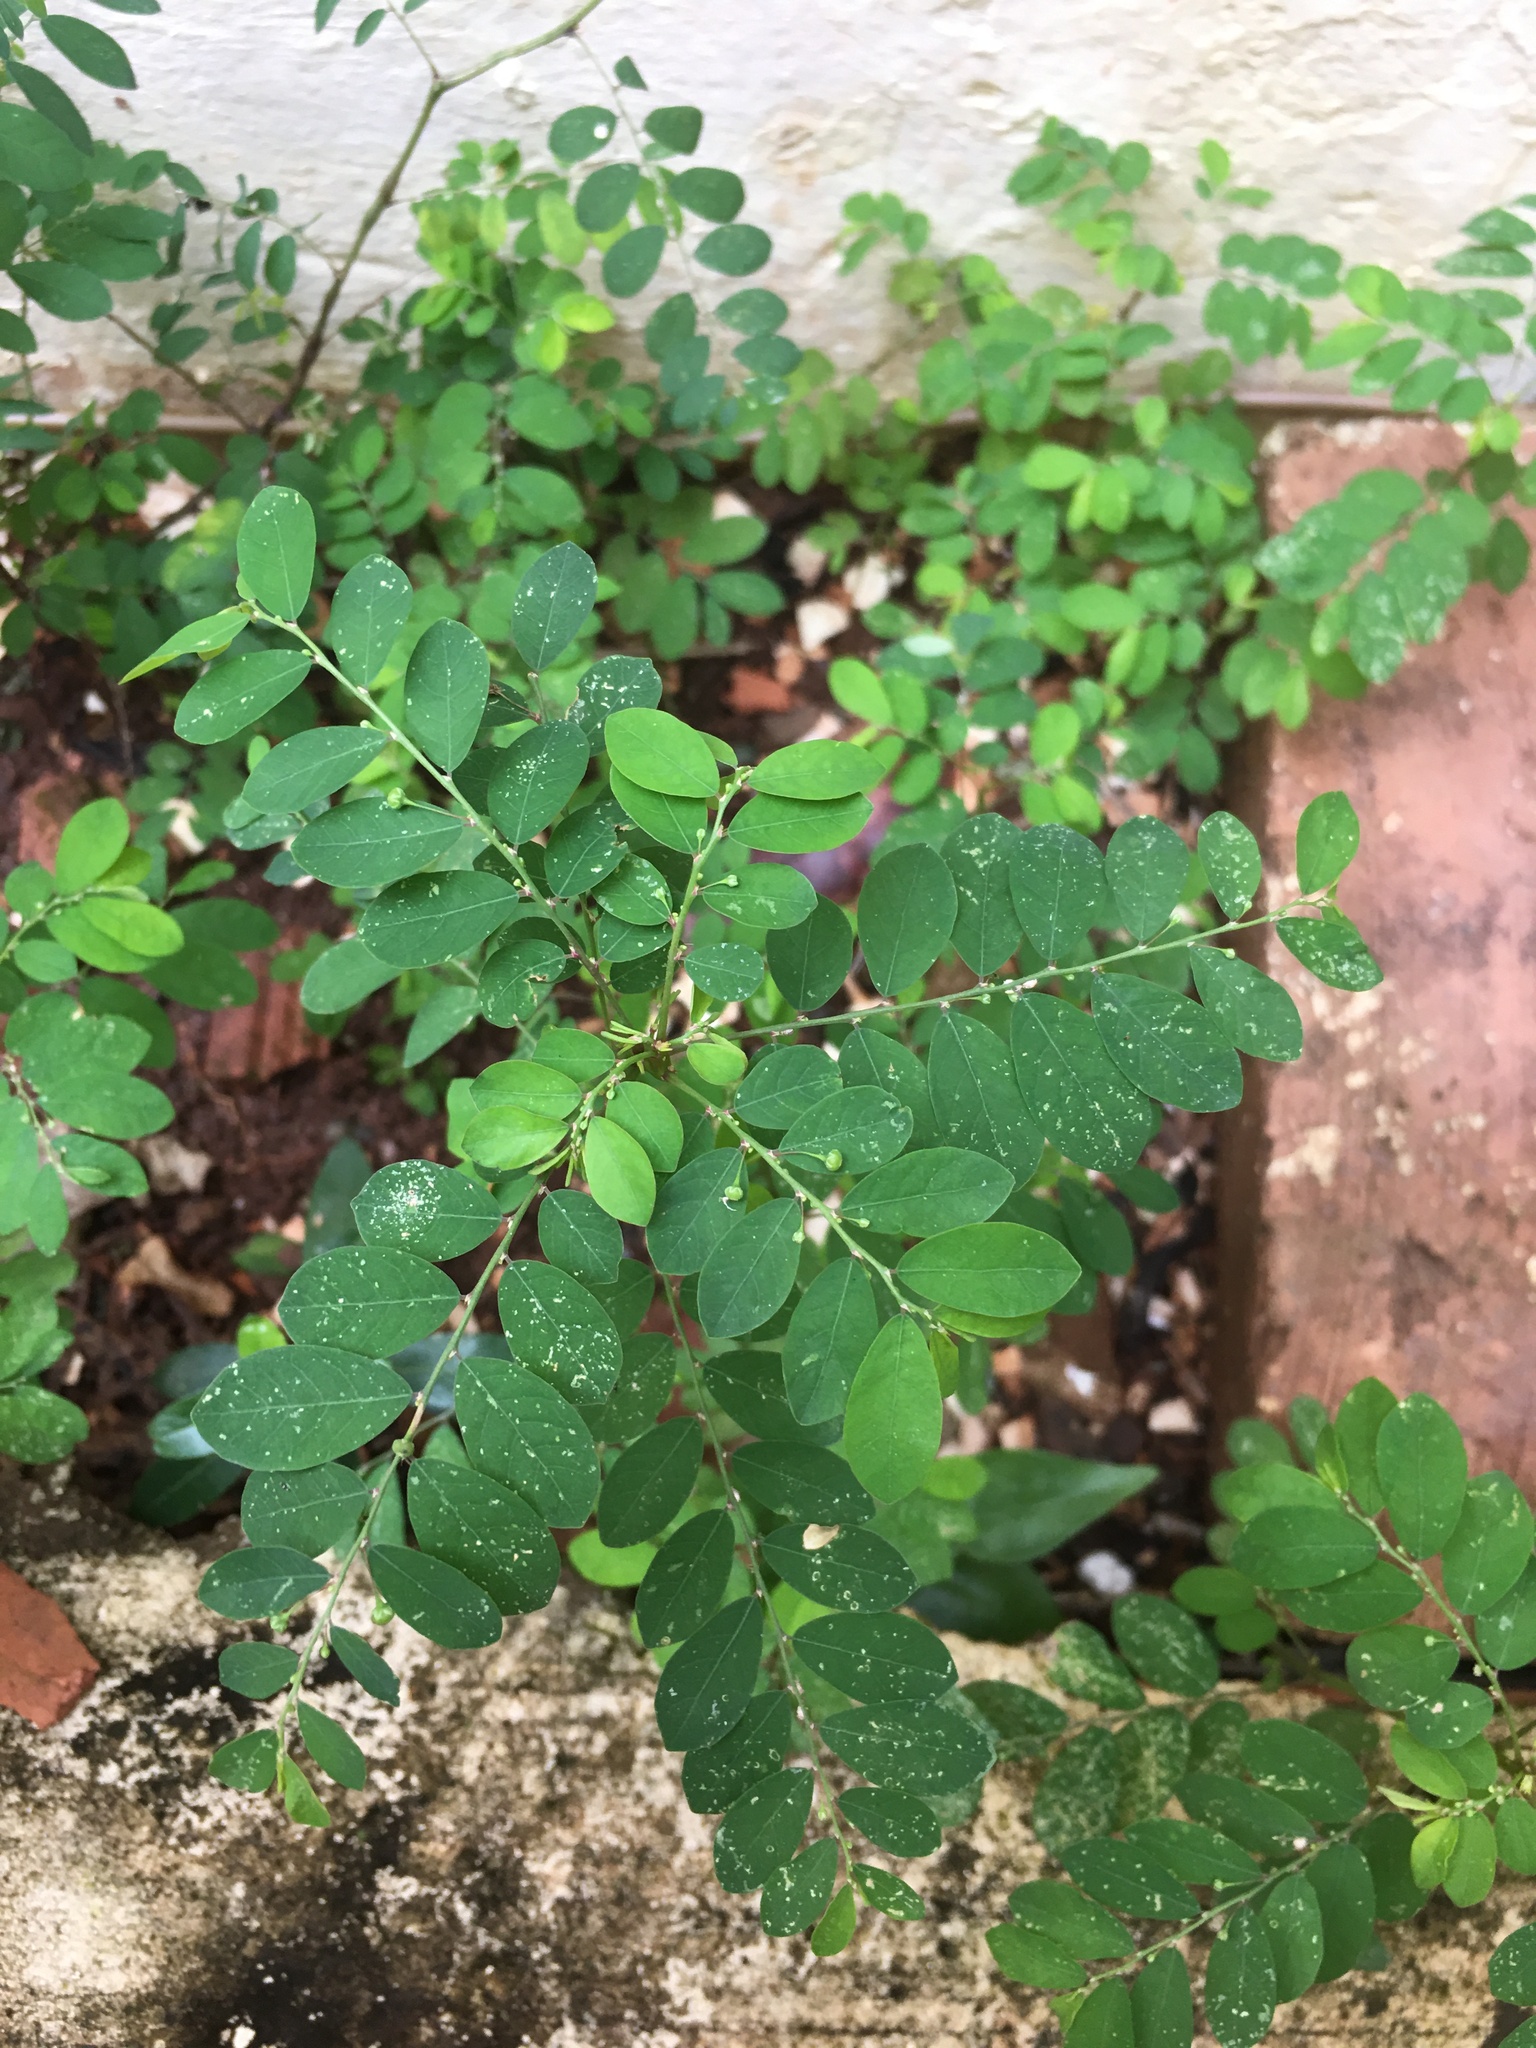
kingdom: Plantae
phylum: Tracheophyta
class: Magnoliopsida
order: Malpighiales
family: Phyllanthaceae
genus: Phyllanthus
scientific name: Phyllanthus niruri
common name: Niruri
